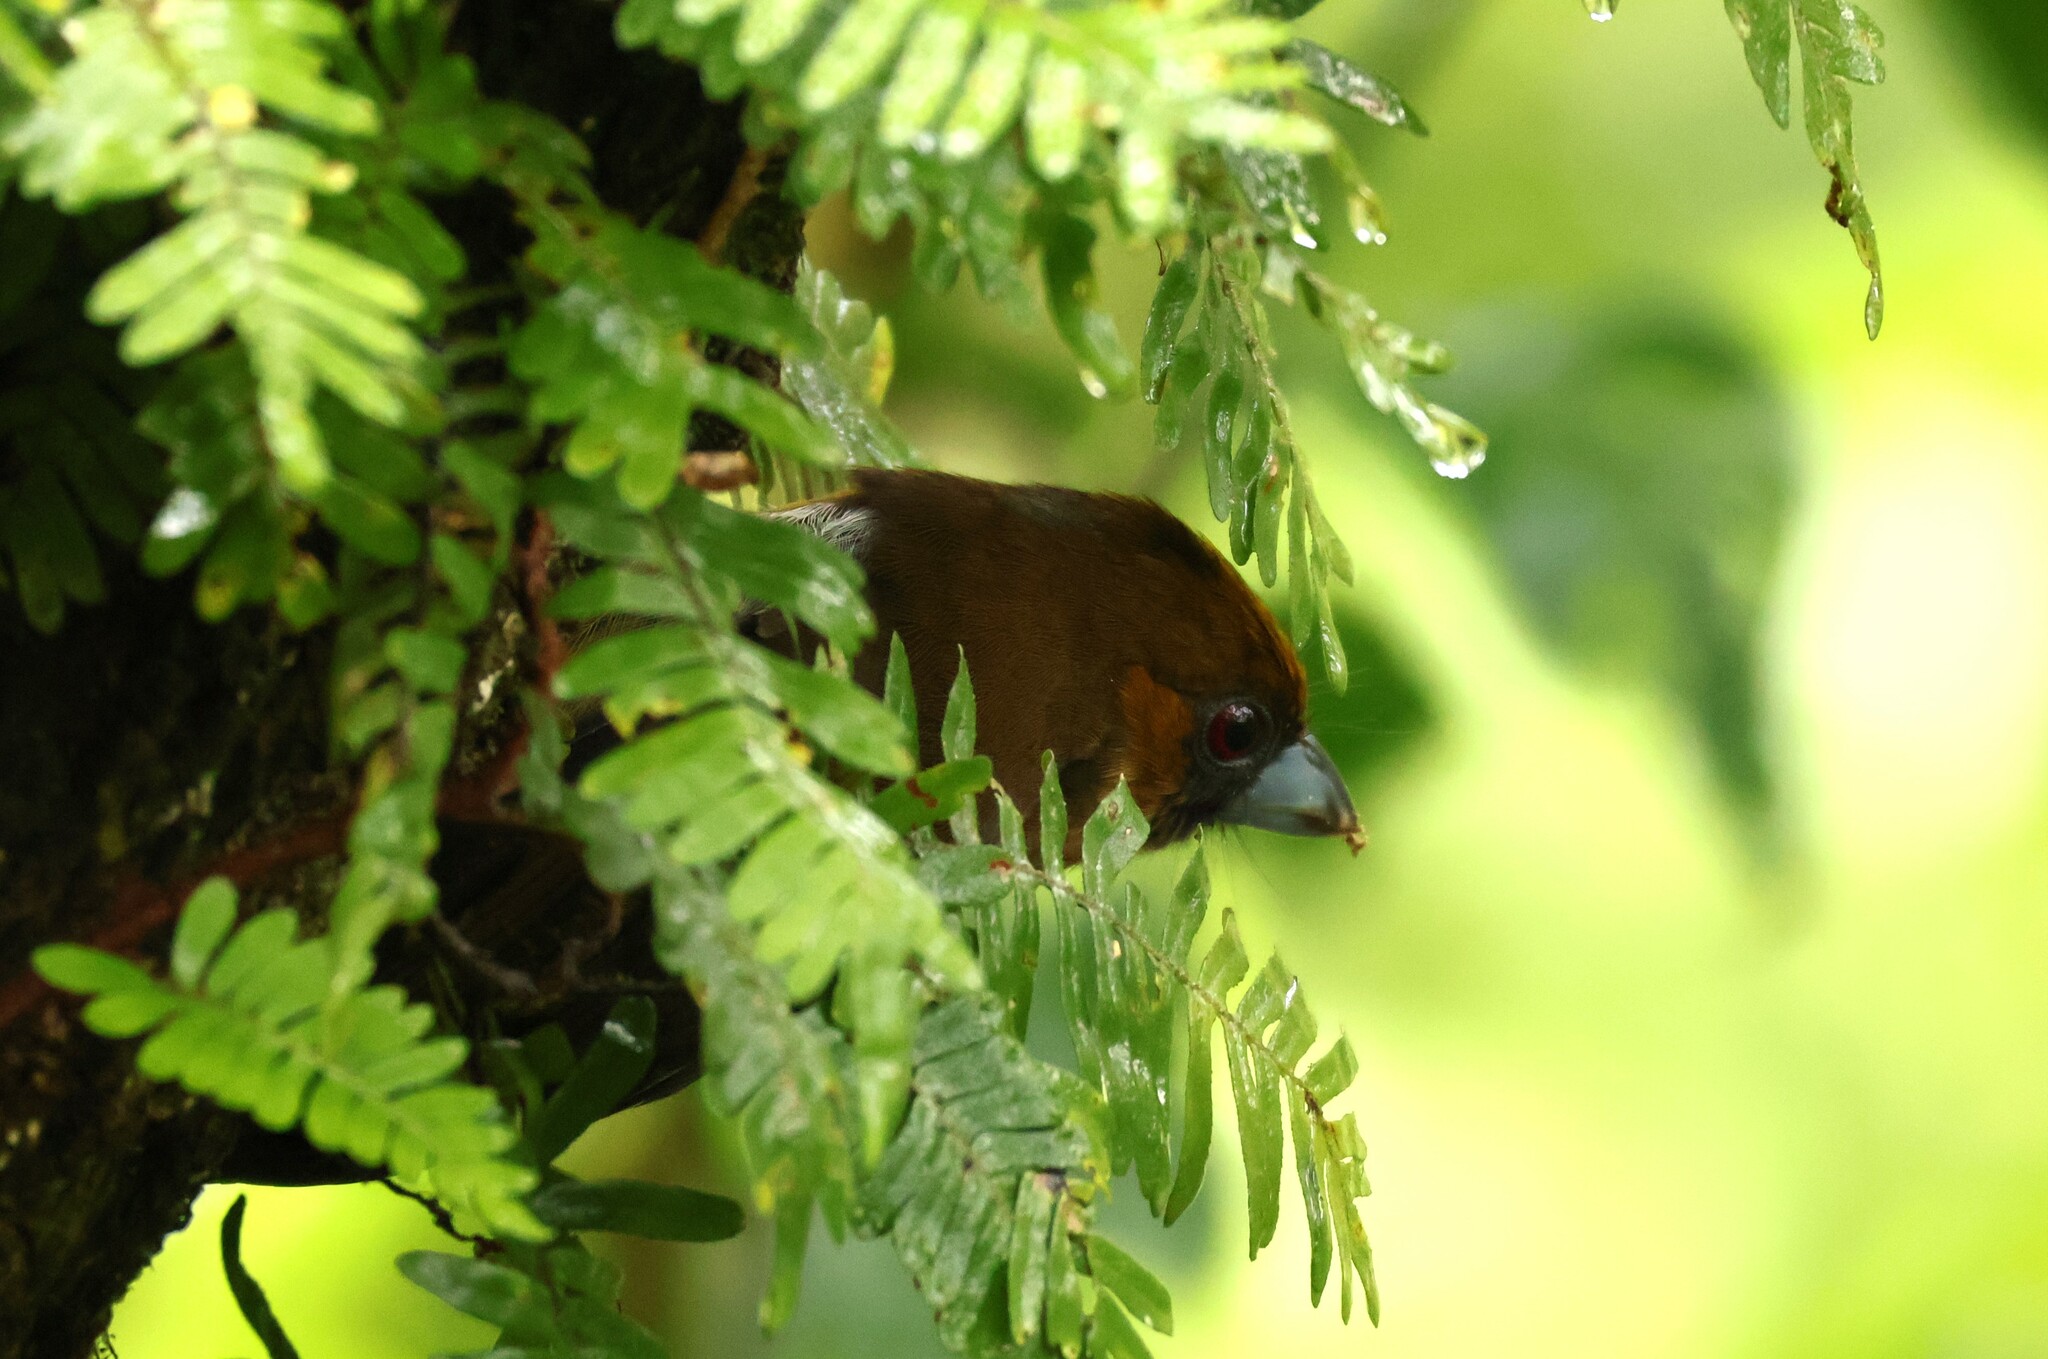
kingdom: Animalia
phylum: Chordata
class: Aves
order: Piciformes
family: Semnornithidae
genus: Semnornis
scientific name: Semnornis frantzii
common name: Prong-billed barbet
